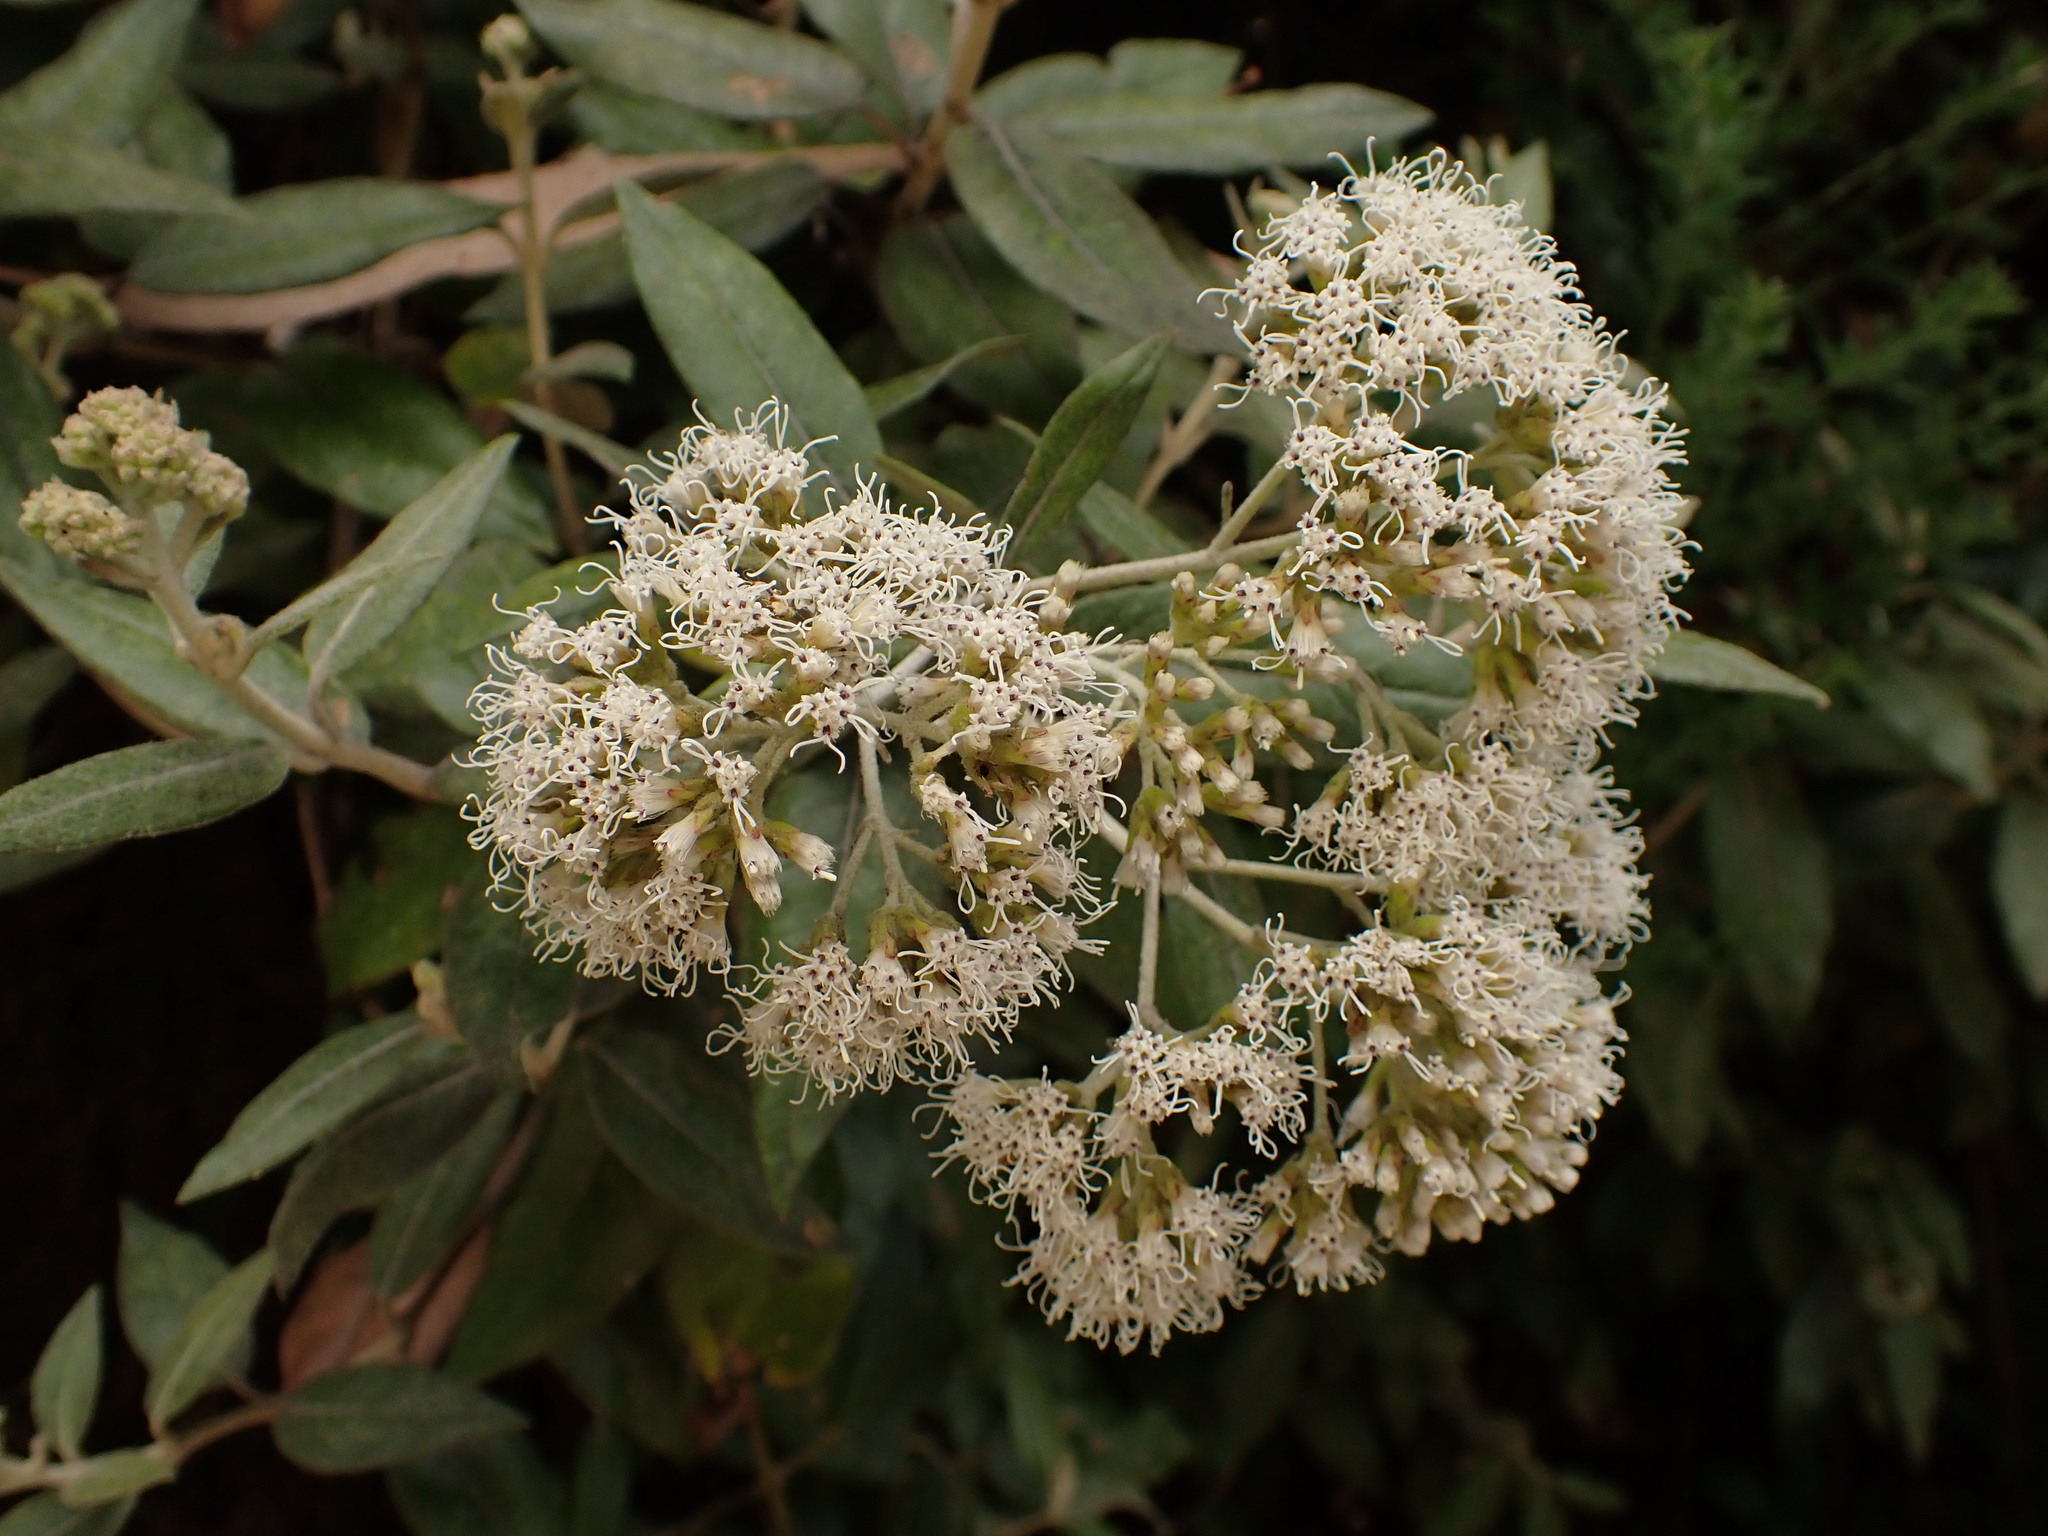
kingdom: Plantae
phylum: Tracheophyta
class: Magnoliopsida
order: Asterales
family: Asteraceae
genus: Ageratina
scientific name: Ageratina asclepiadea
